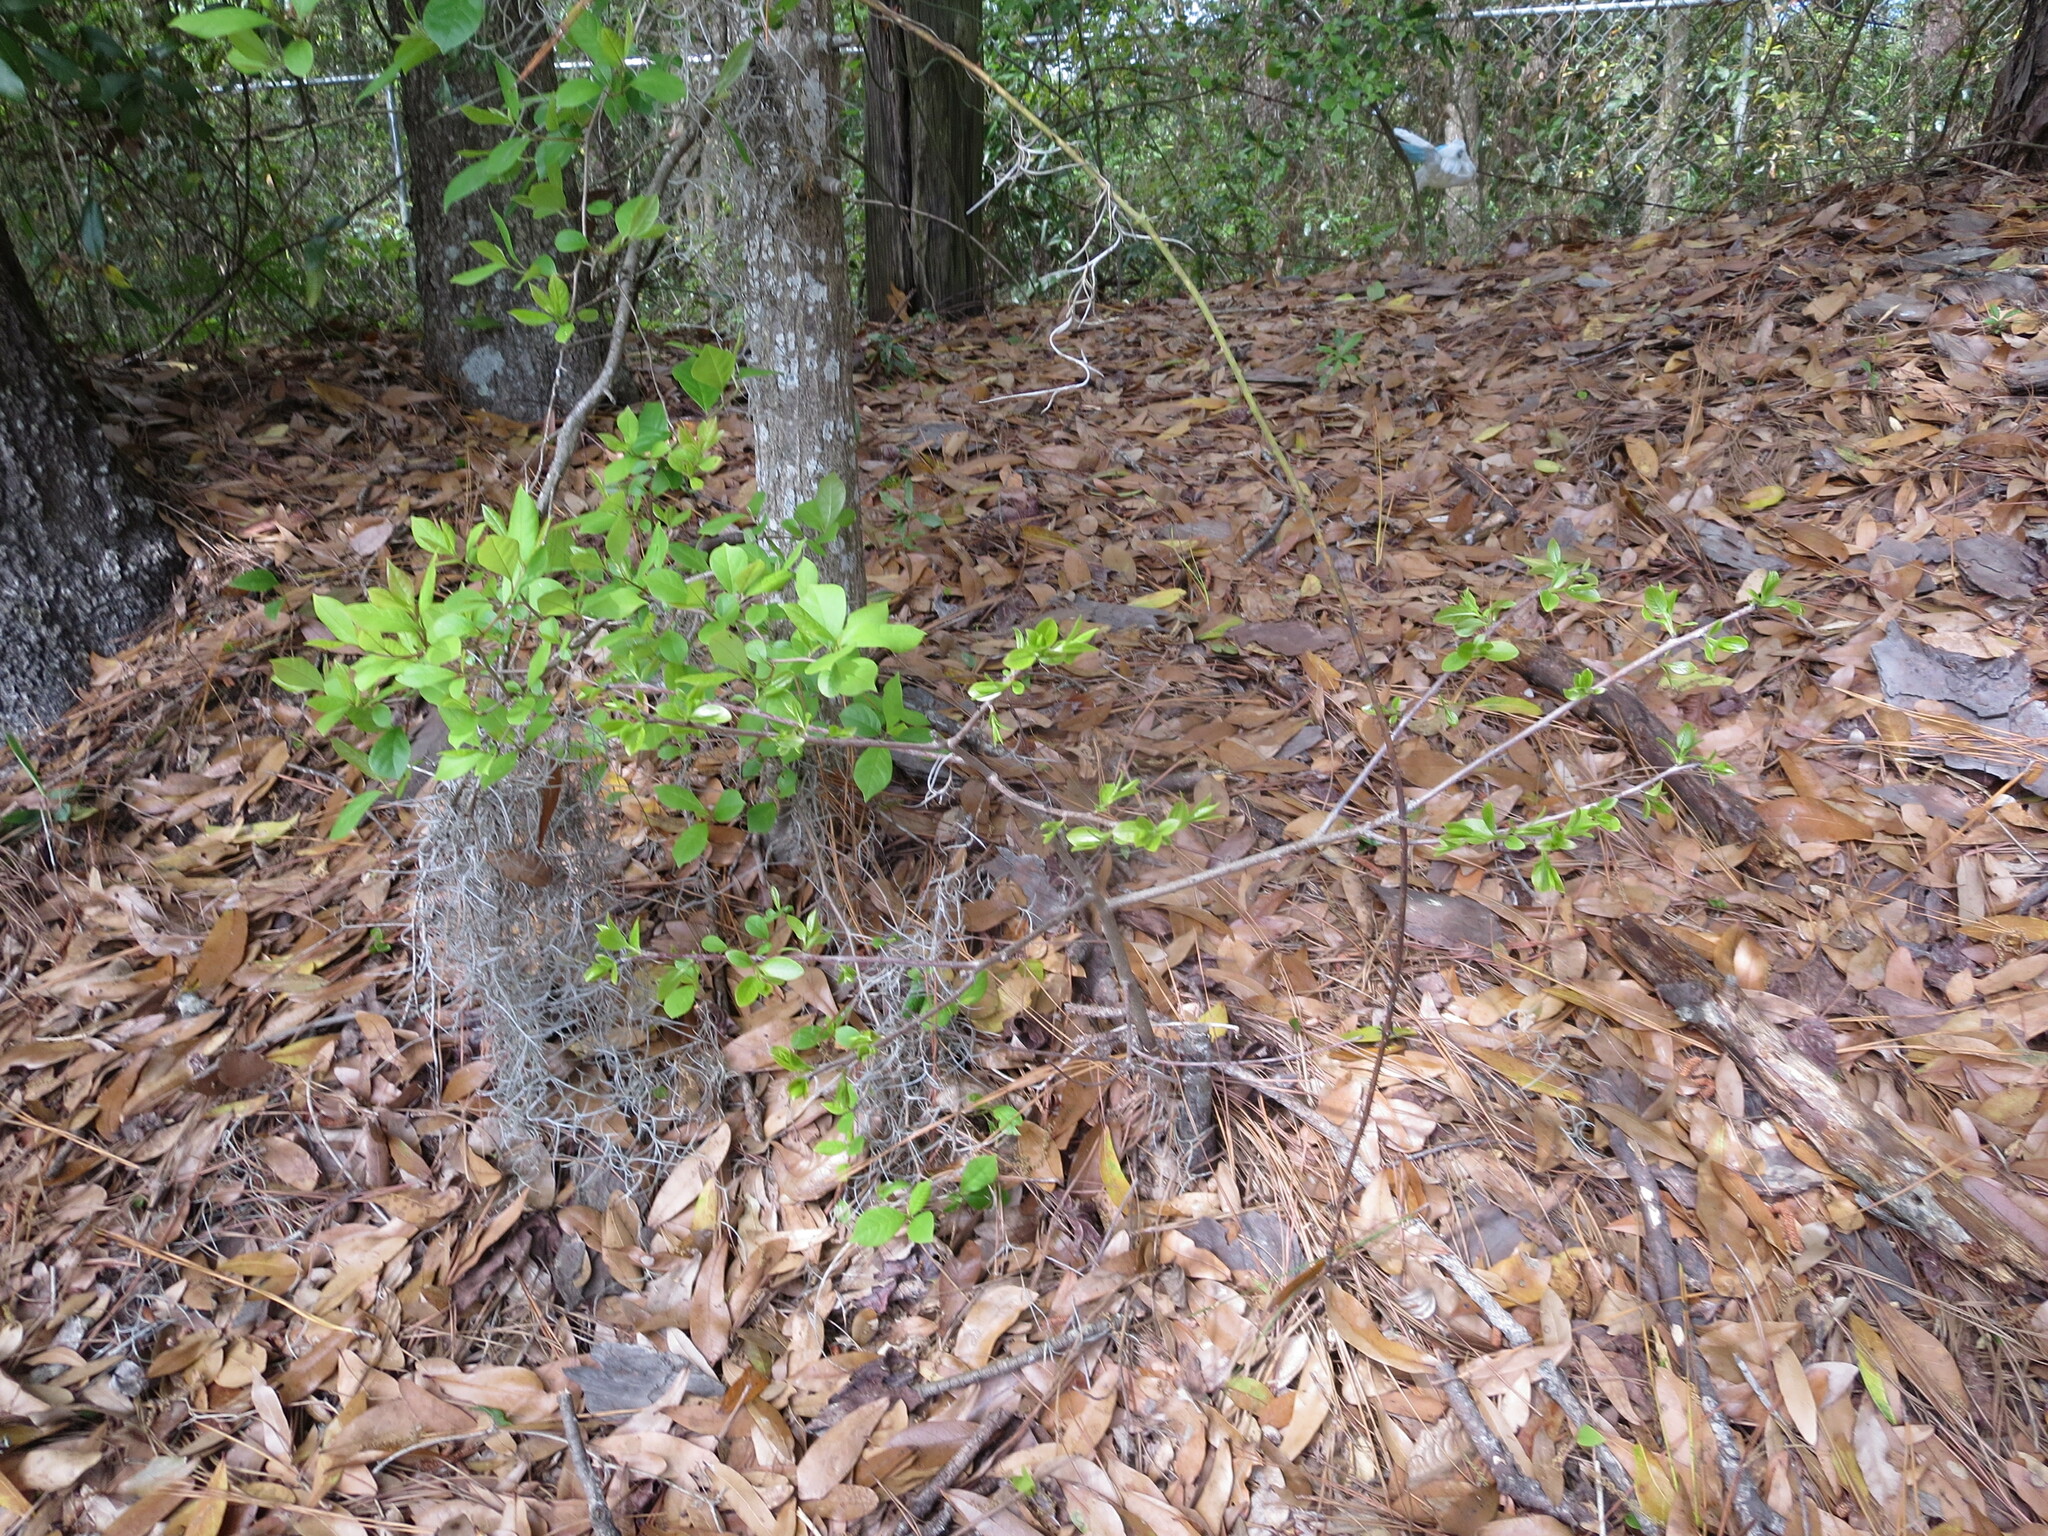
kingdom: Plantae
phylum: Tracheophyta
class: Magnoliopsida
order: Ericales
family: Ebenaceae
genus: Diospyros
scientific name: Diospyros virginiana
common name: Persimmon
